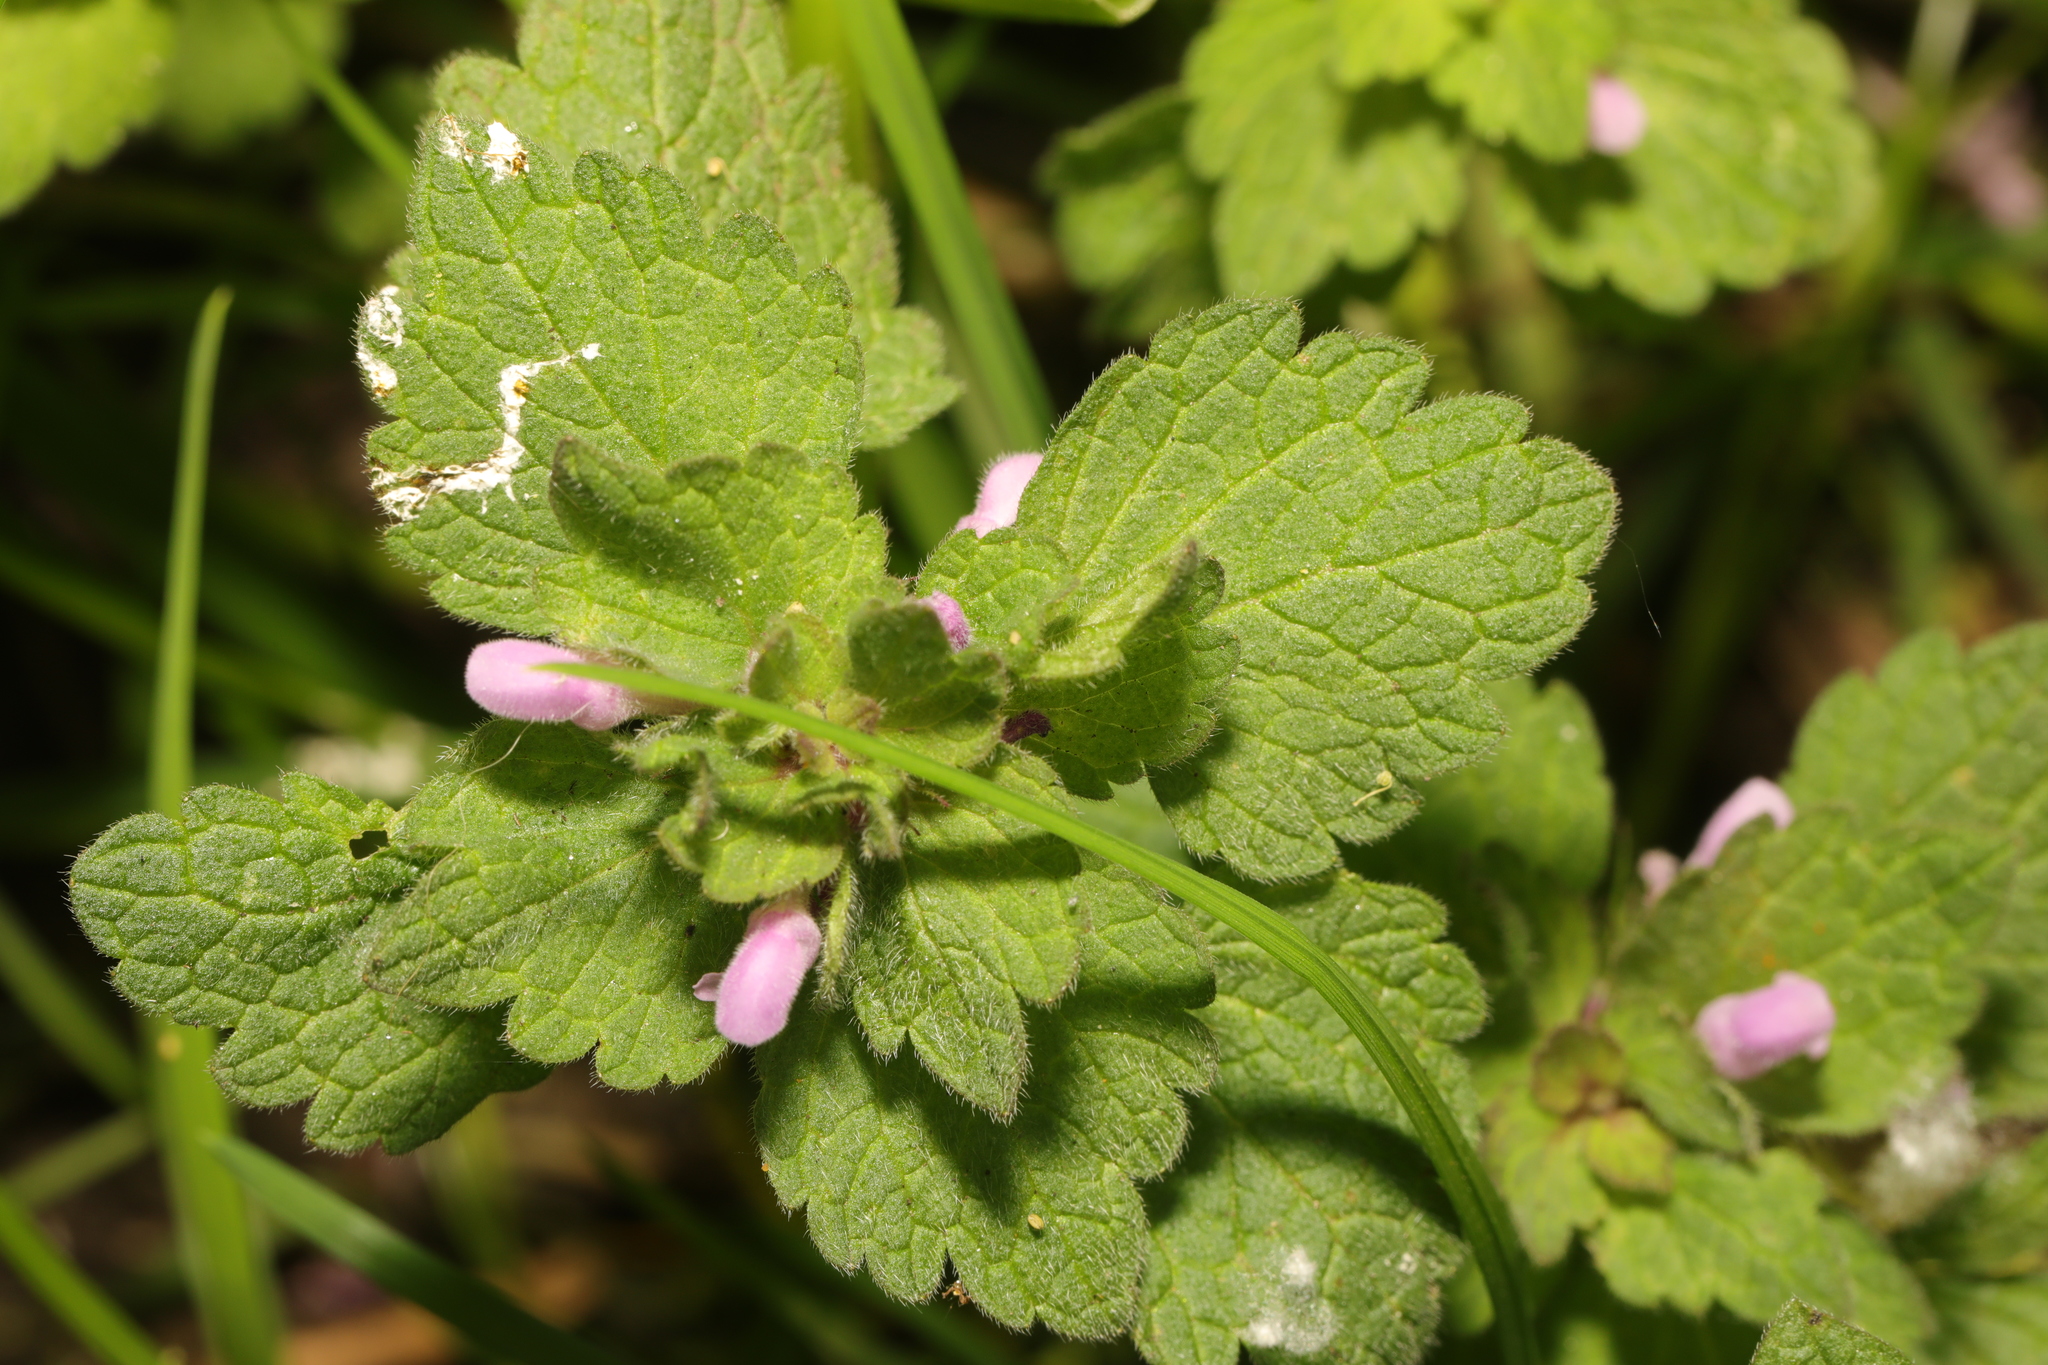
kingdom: Plantae
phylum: Tracheophyta
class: Magnoliopsida
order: Lamiales
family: Lamiaceae
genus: Lamium
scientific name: Lamium purpureum
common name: Red dead-nettle
